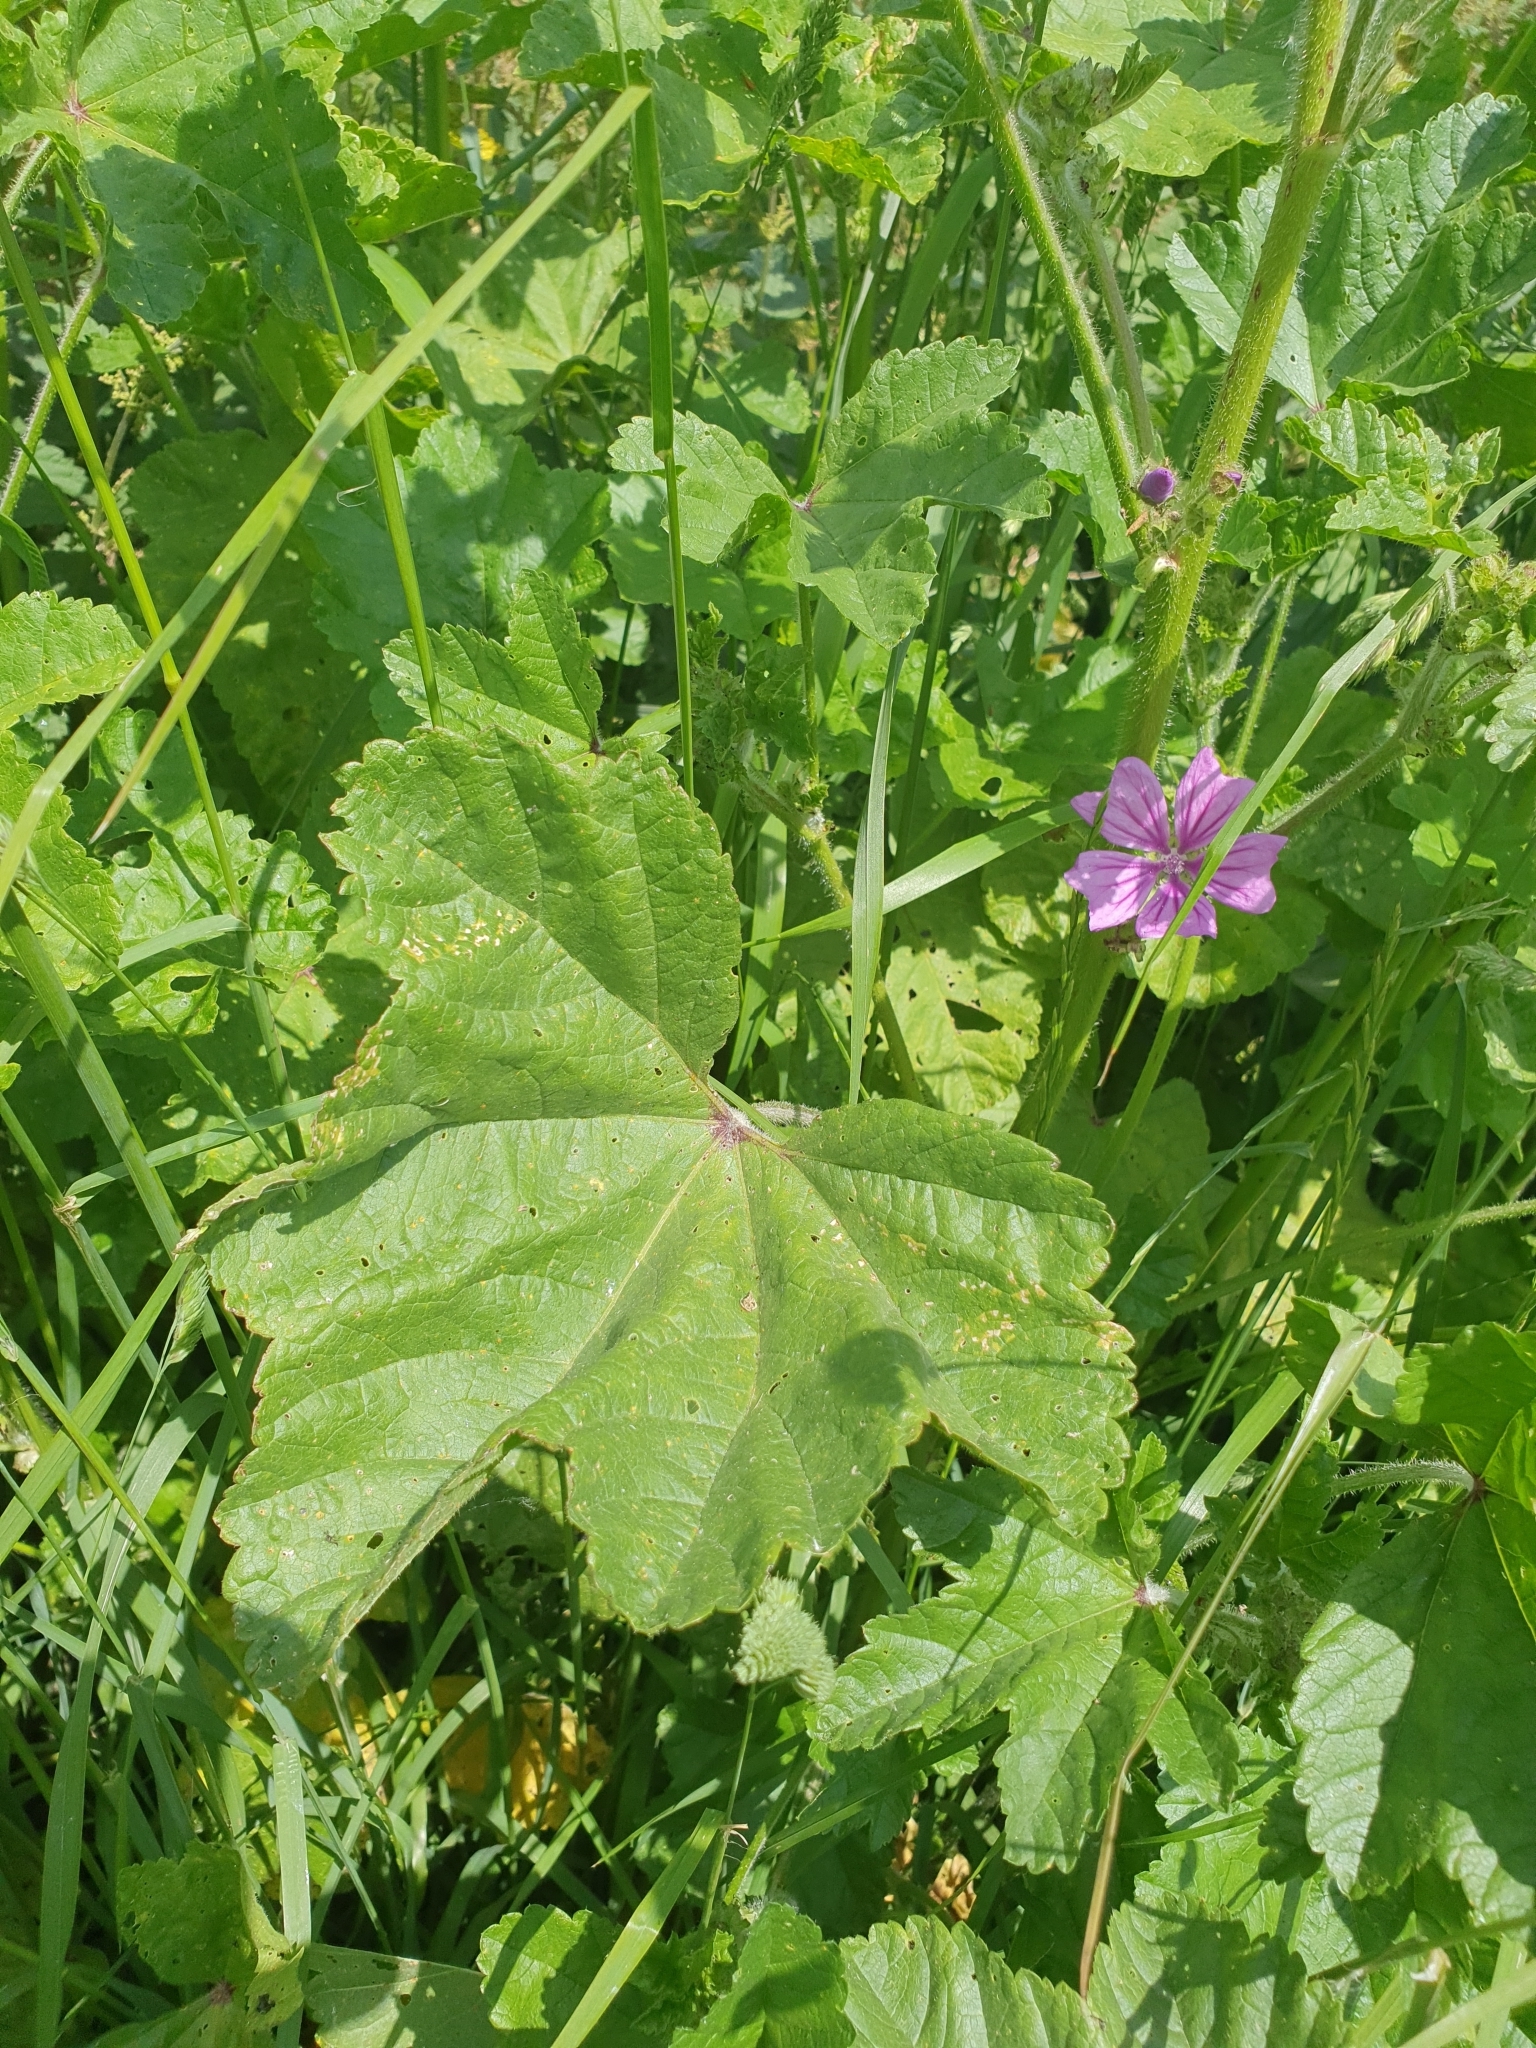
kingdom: Plantae
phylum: Tracheophyta
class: Magnoliopsida
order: Malvales
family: Malvaceae
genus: Malva
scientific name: Malva sylvestris
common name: Common mallow
